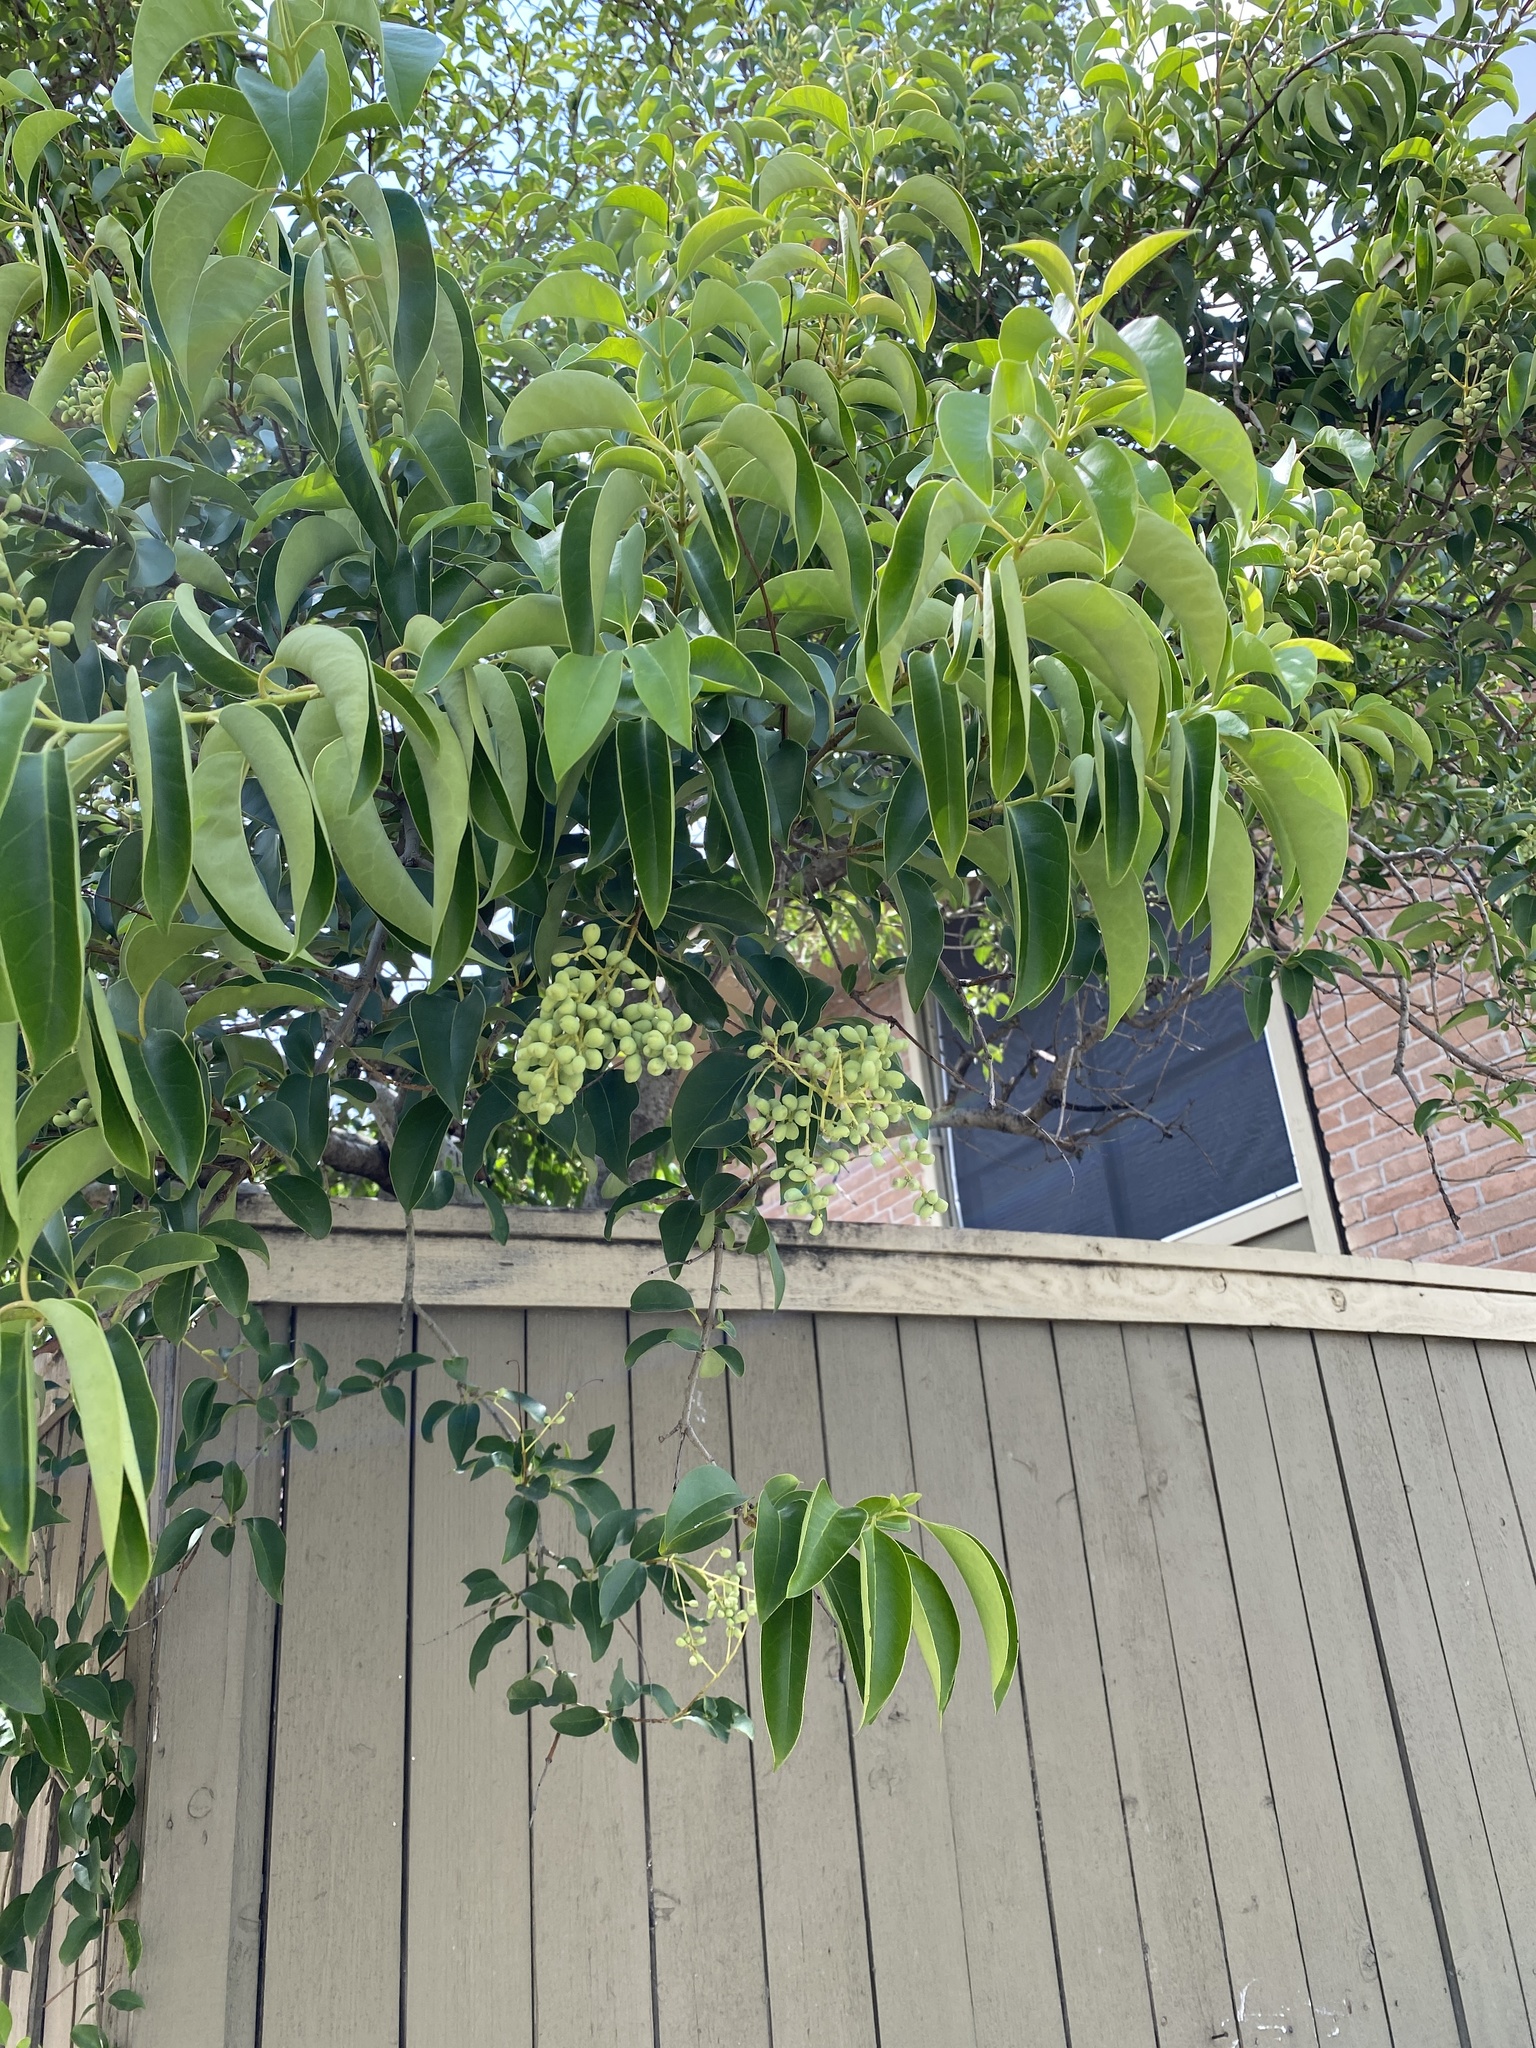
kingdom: Plantae
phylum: Tracheophyta
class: Magnoliopsida
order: Lamiales
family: Oleaceae
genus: Ligustrum
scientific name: Ligustrum lucidum
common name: Glossy privet
